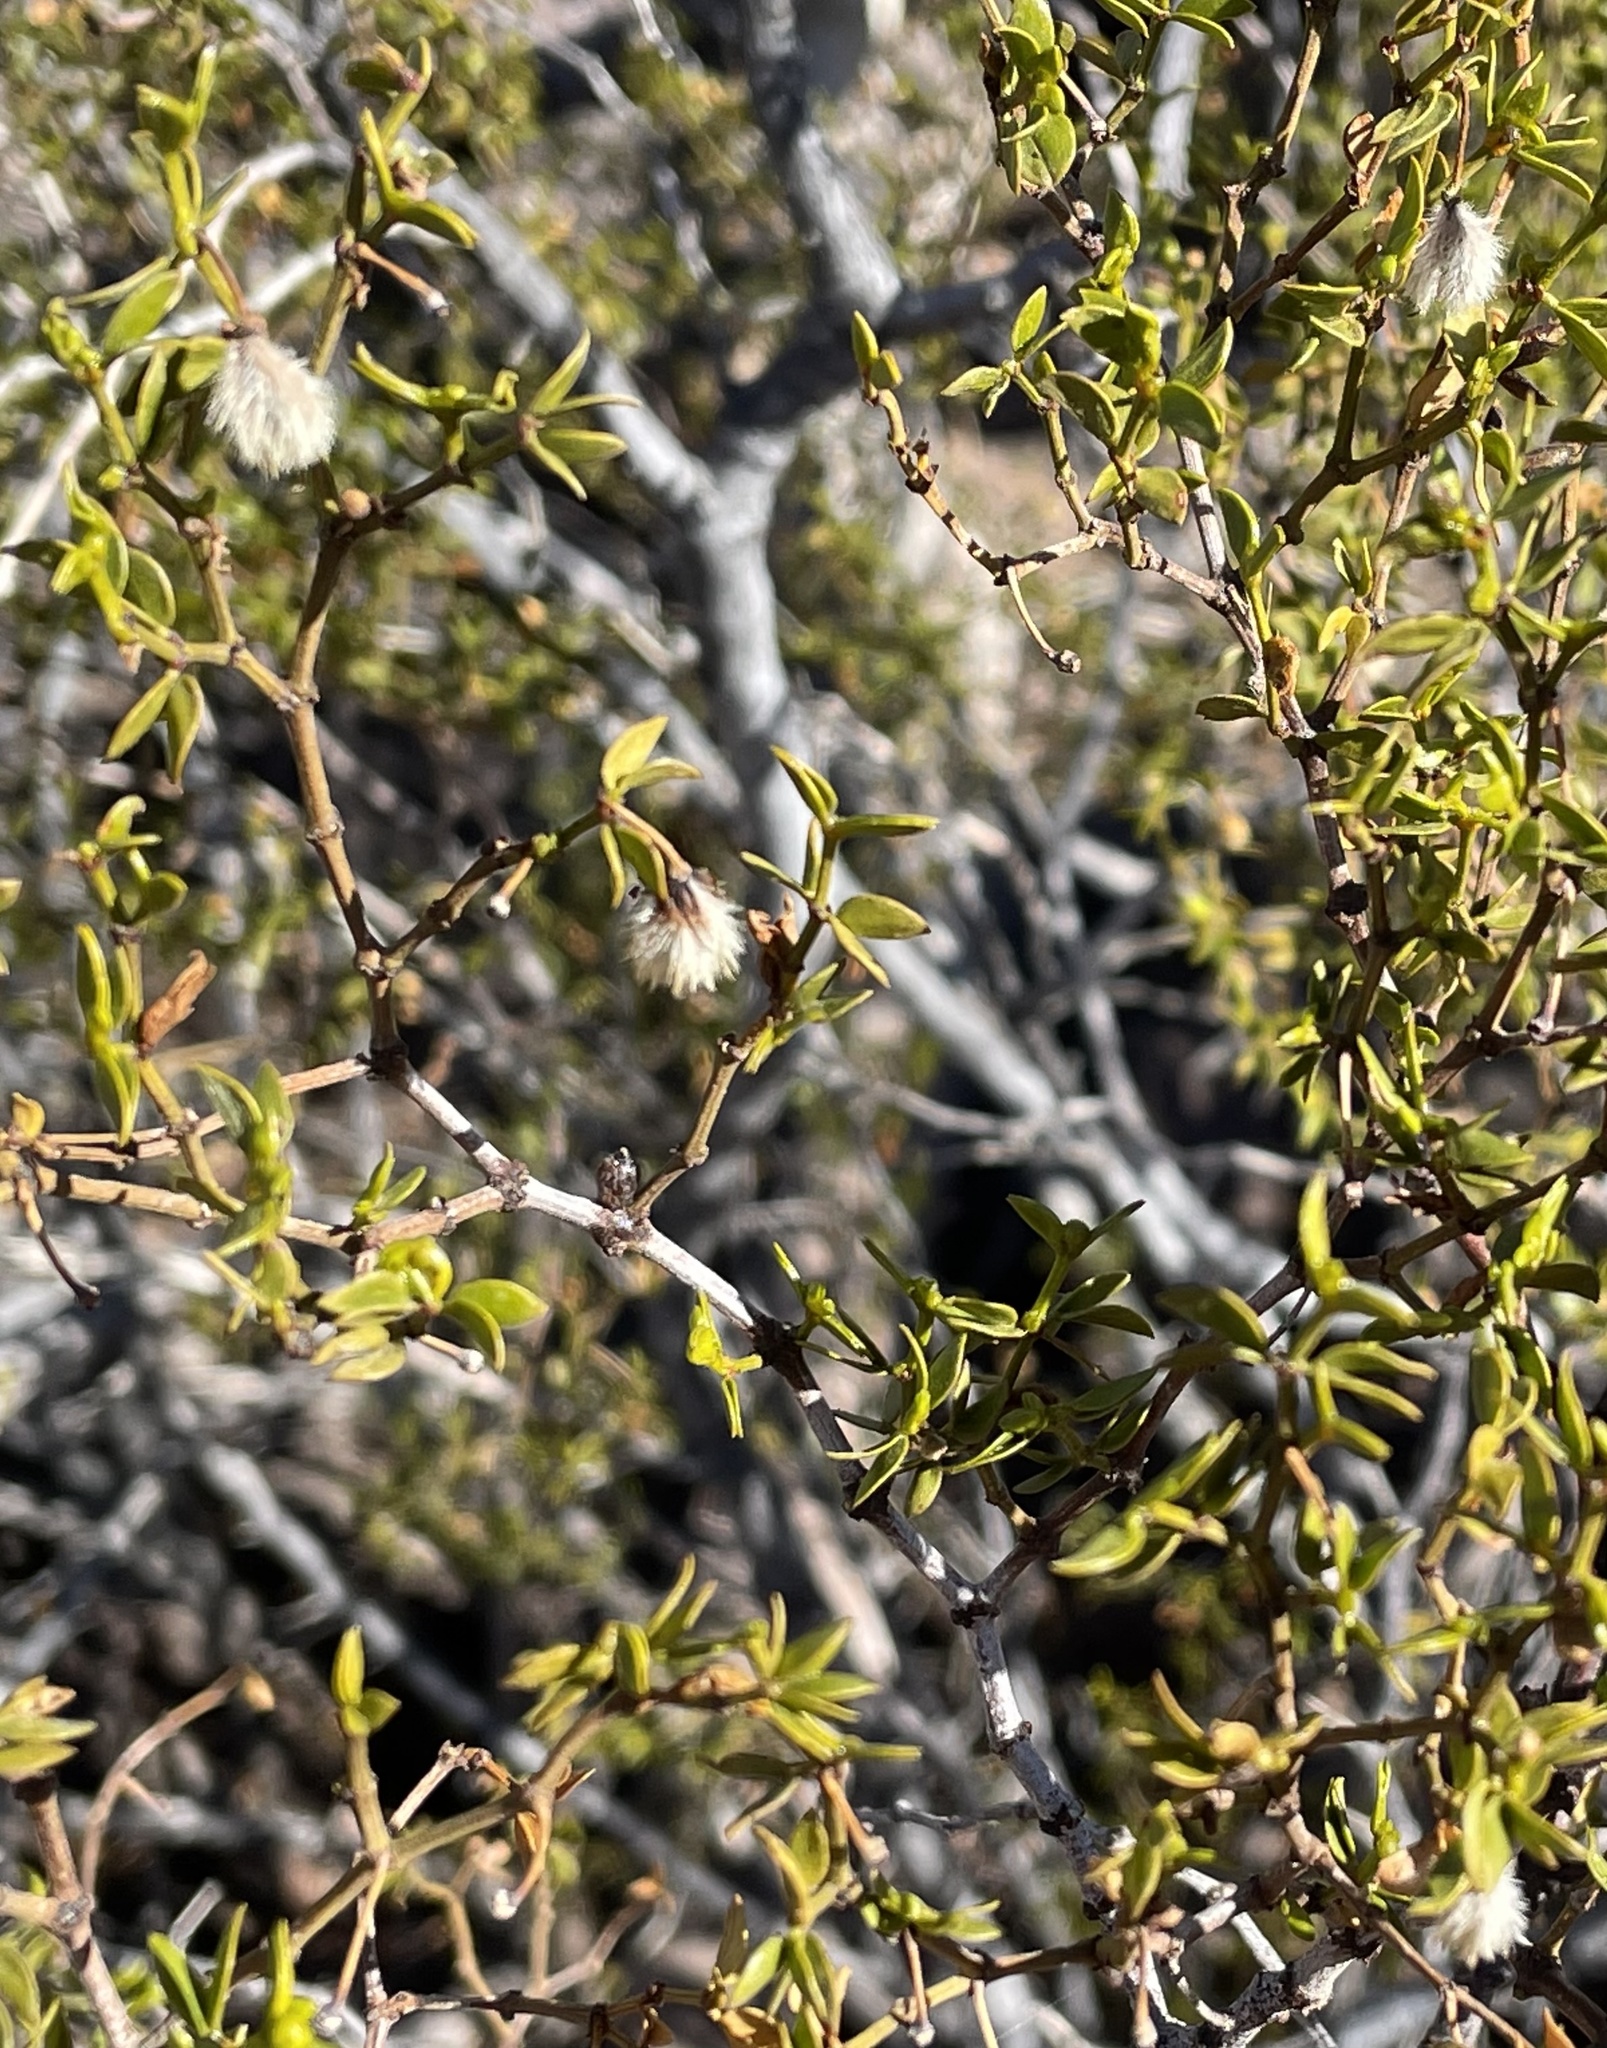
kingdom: Plantae
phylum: Tracheophyta
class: Magnoliopsida
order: Zygophyllales
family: Zygophyllaceae
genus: Larrea
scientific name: Larrea tridentata
